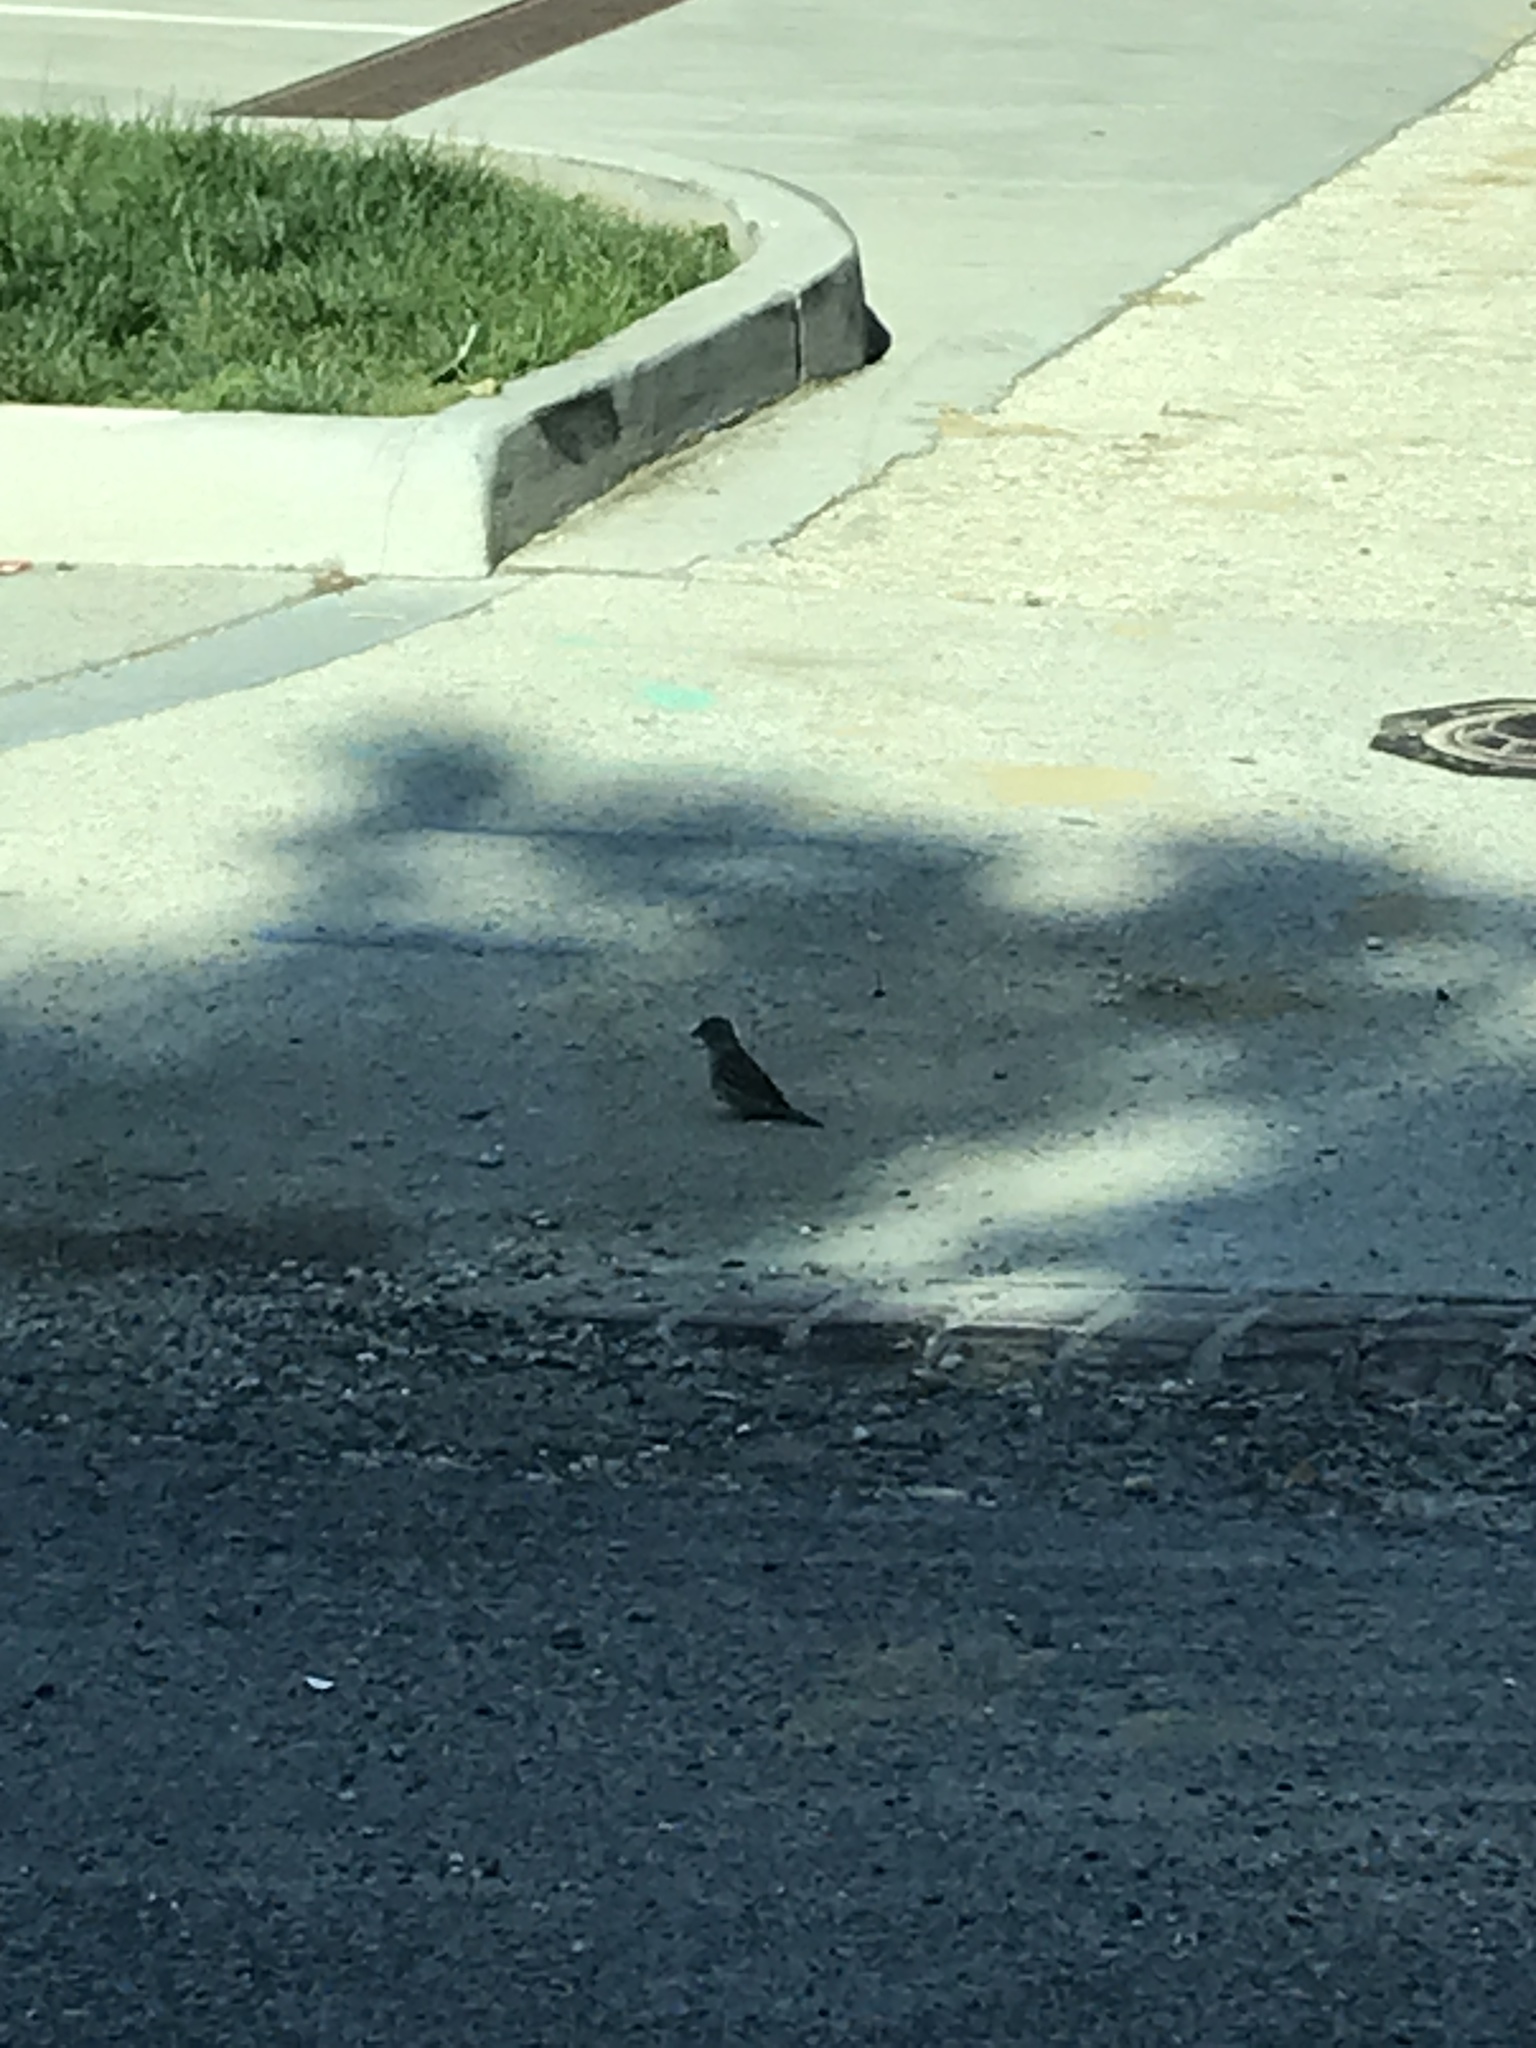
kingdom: Animalia
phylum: Chordata
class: Aves
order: Passeriformes
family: Passeridae
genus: Passer
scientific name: Passer domesticus
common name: House sparrow
